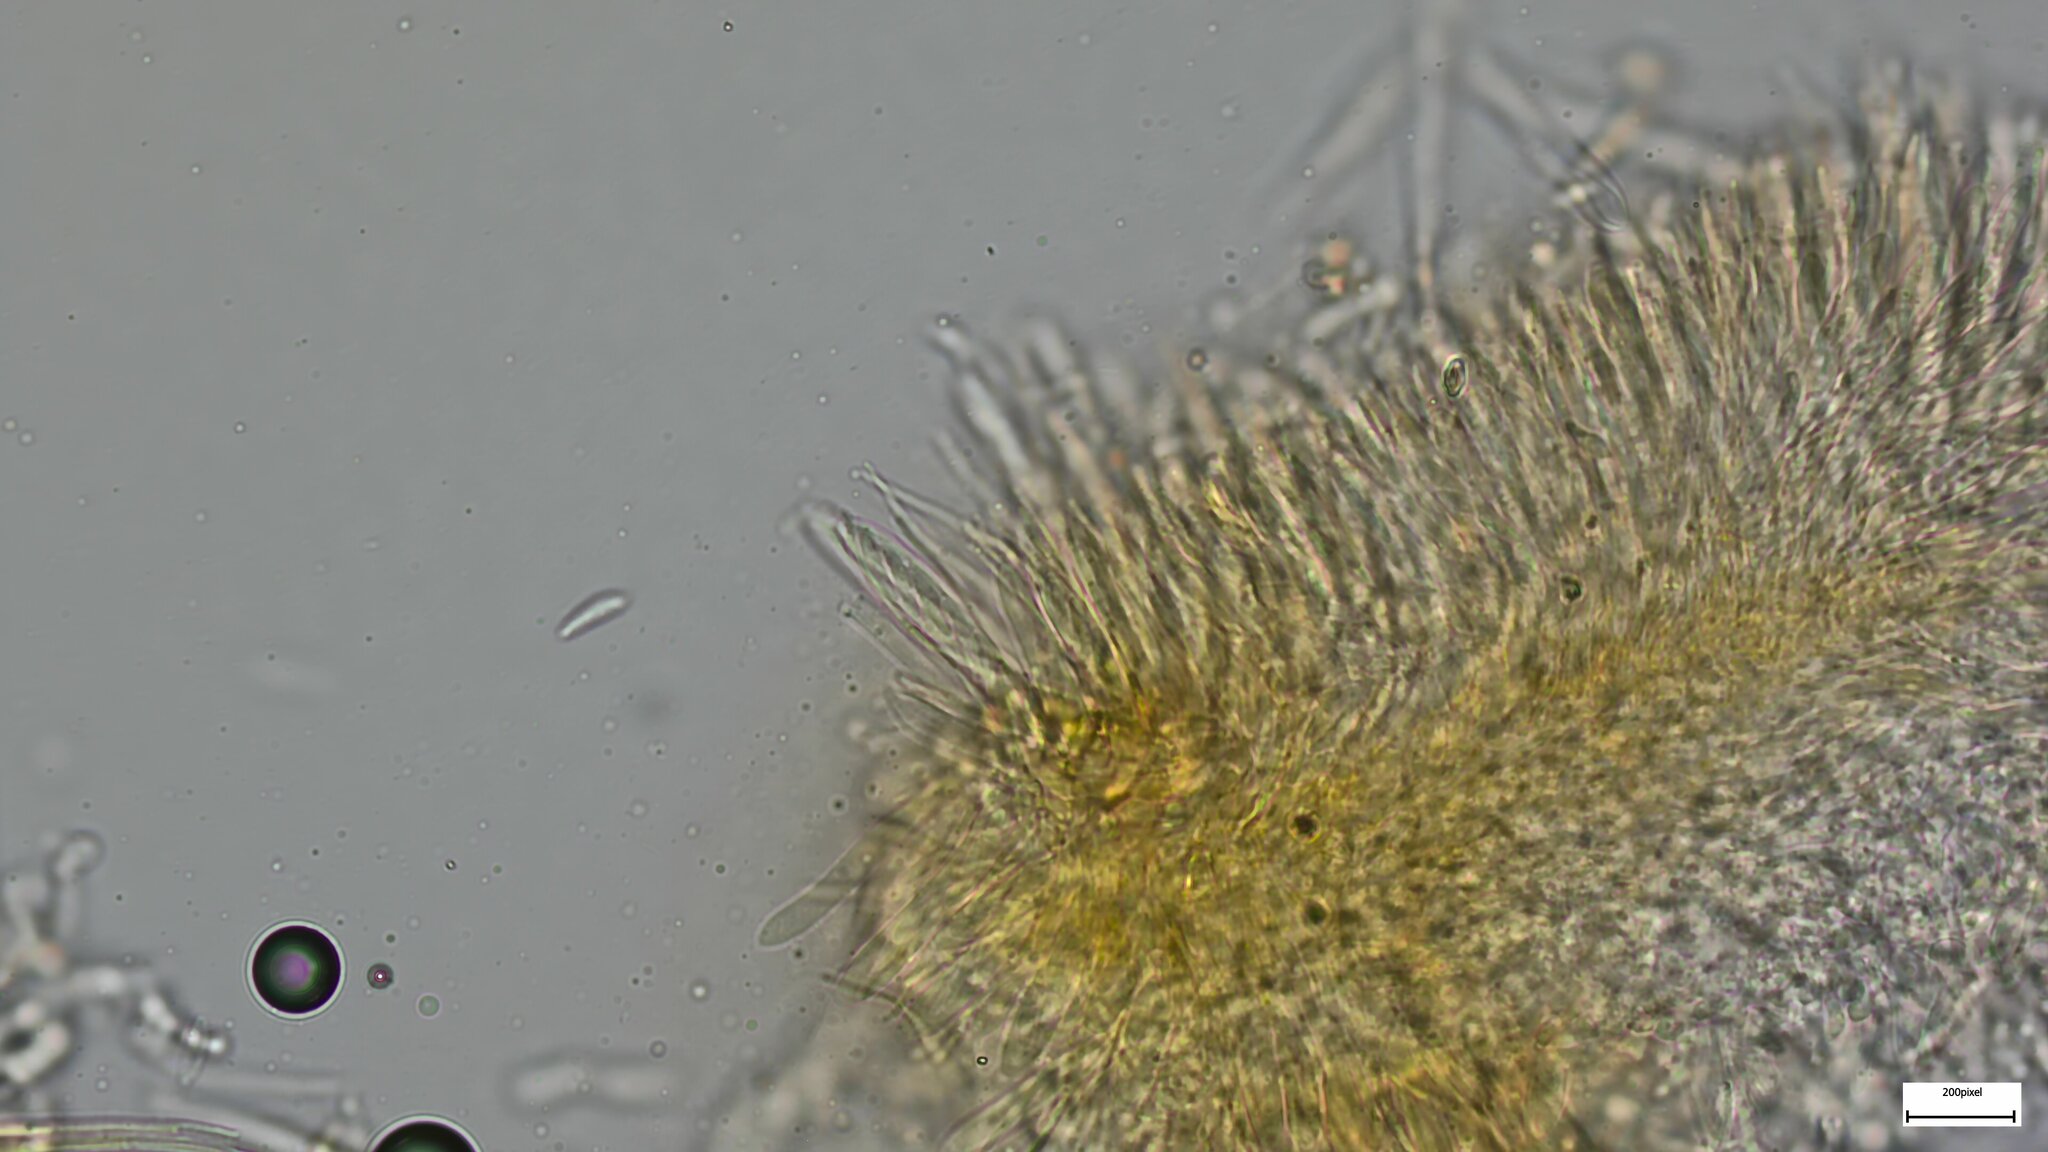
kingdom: Fungi
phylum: Ascomycota
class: Leotiomycetes
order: Helotiales
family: Arachnopezizaceae
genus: Arachnopeziza
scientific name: Arachnopeziza aurelia
